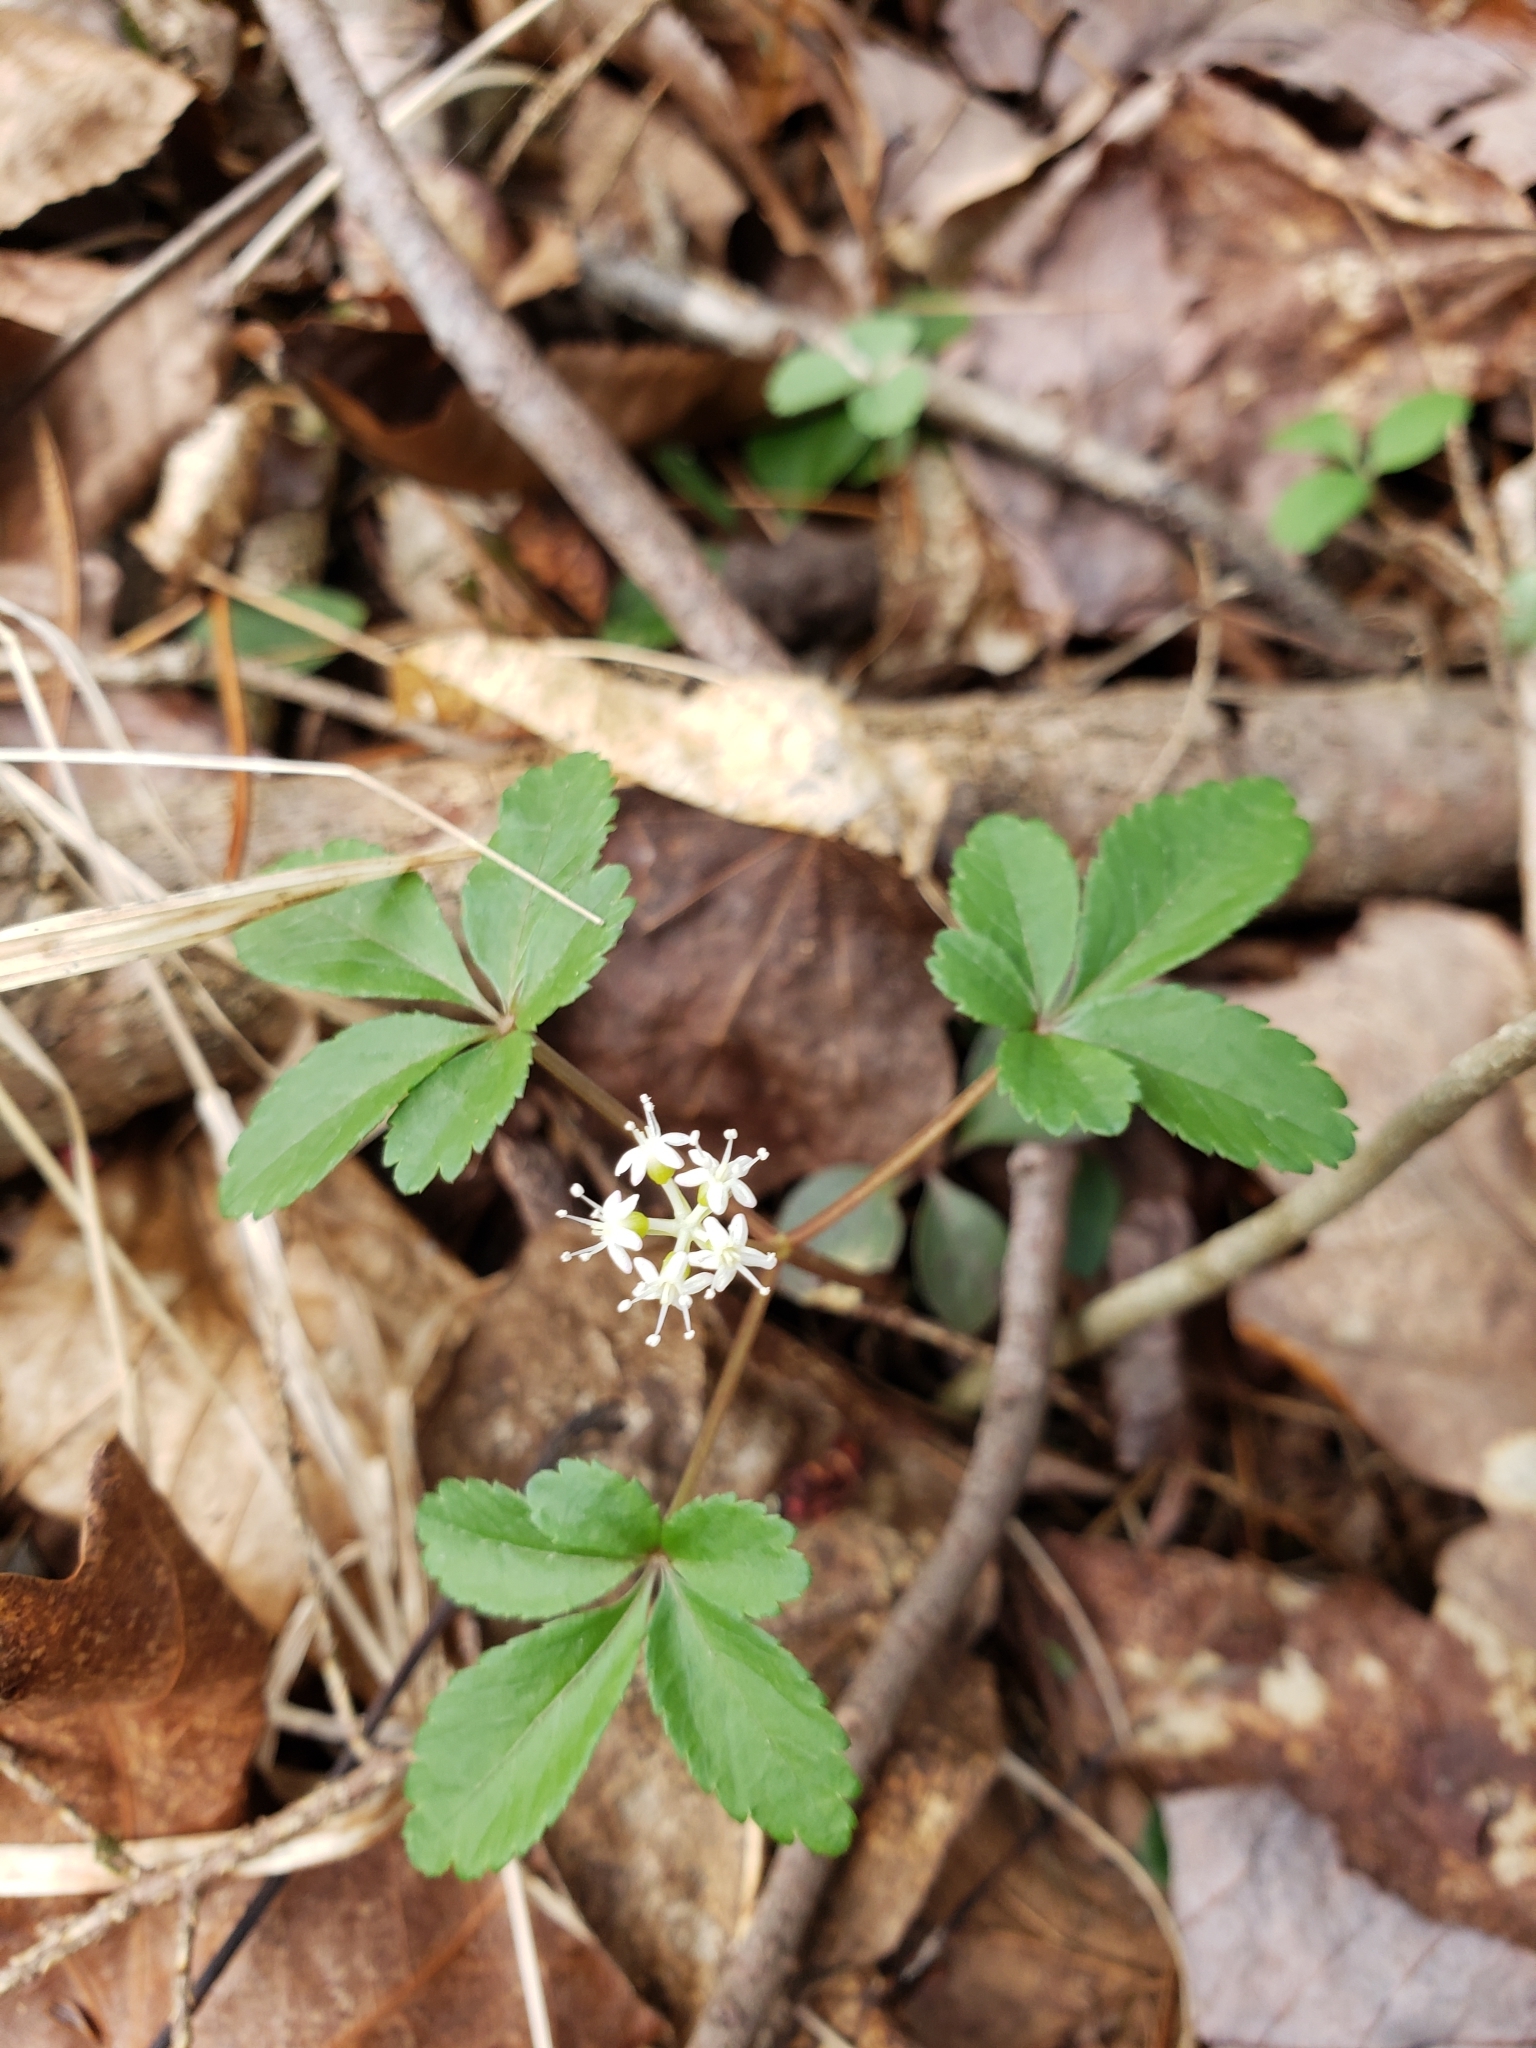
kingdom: Plantae
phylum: Tracheophyta
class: Magnoliopsida
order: Apiales
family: Araliaceae
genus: Panax
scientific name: Panax trifolius
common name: Dwarf ginseng
